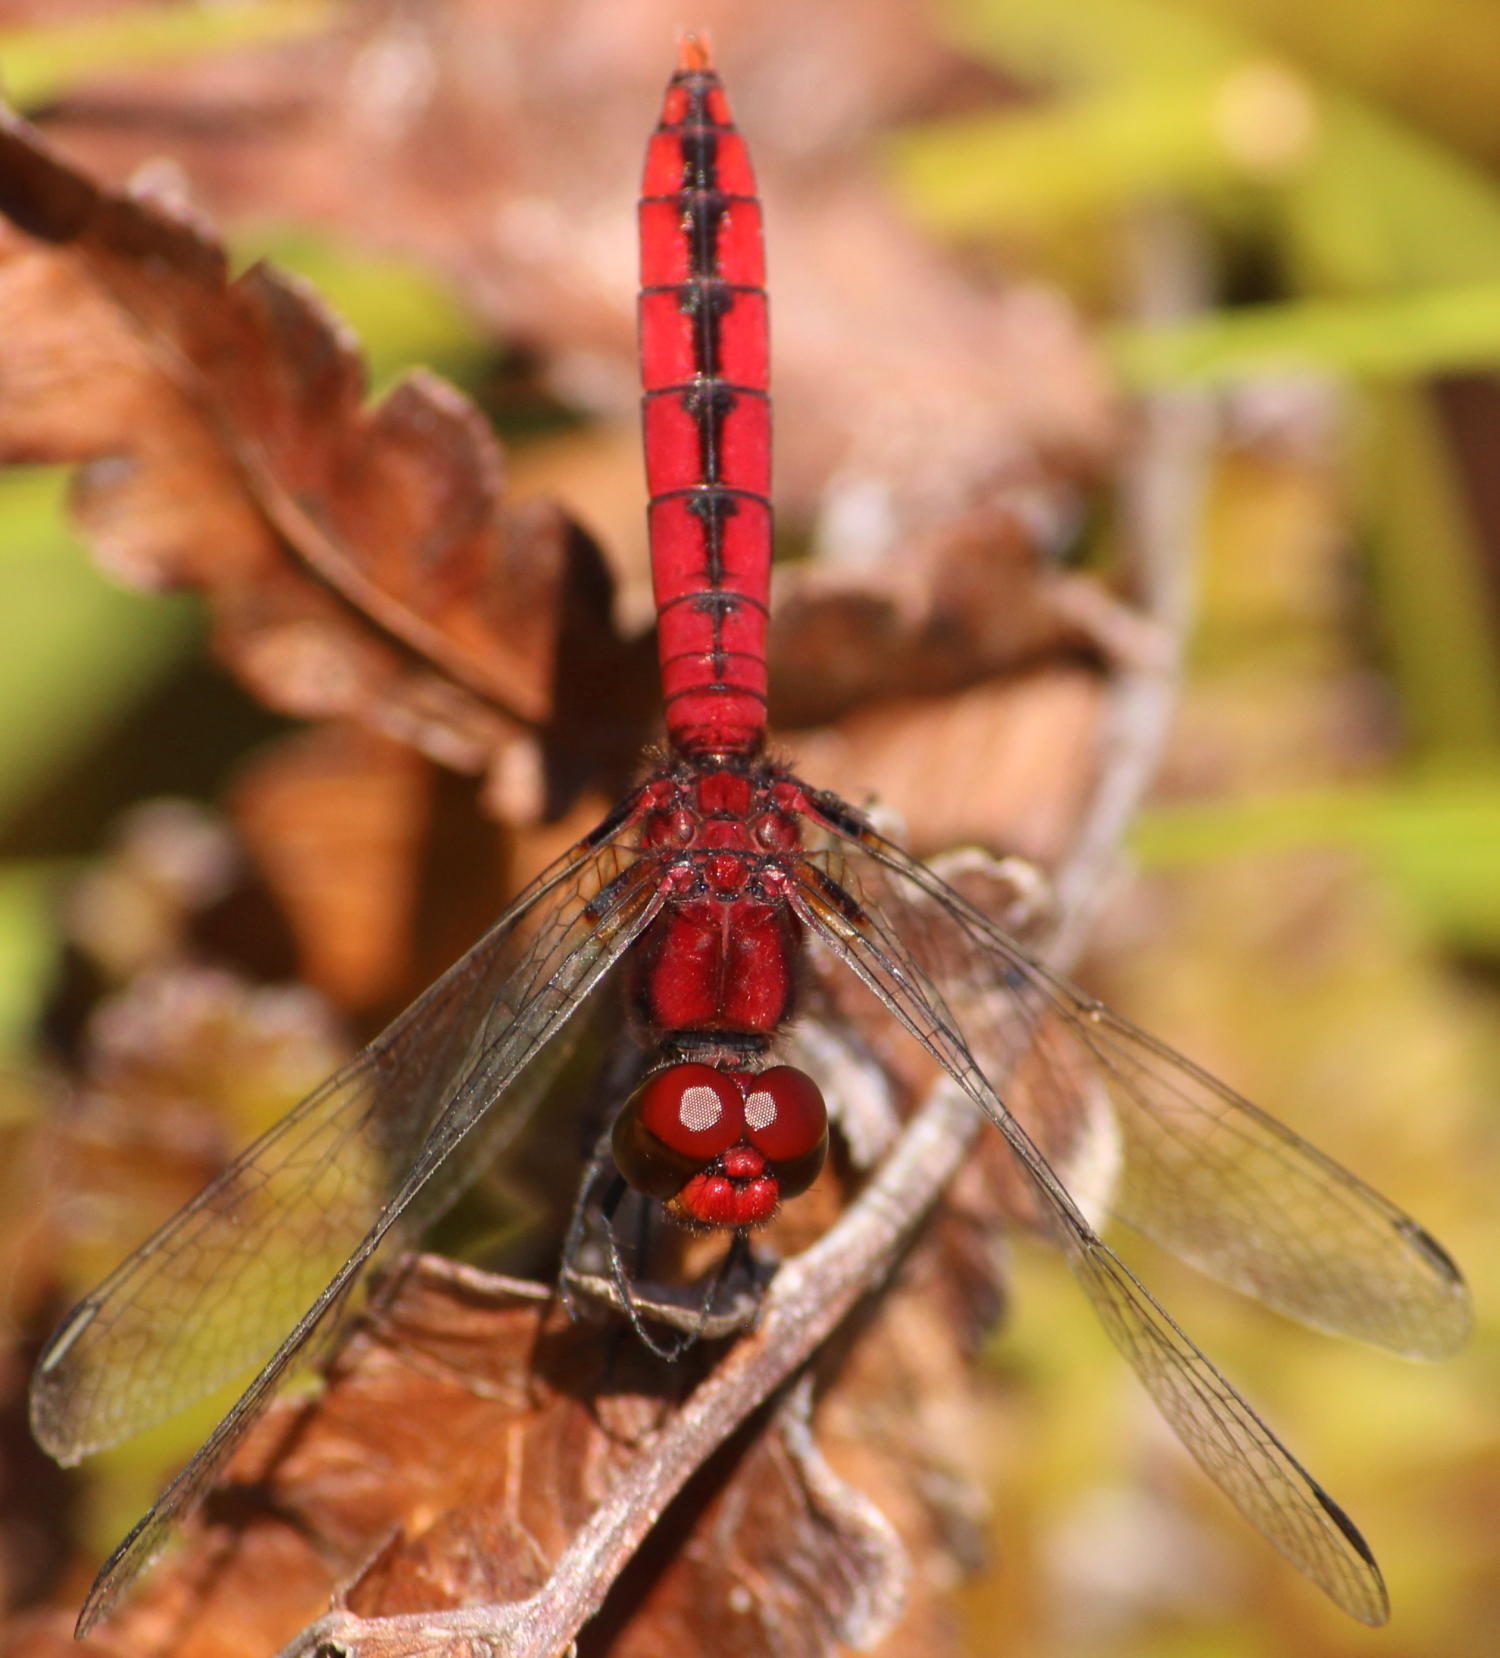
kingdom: Animalia
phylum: Arthropoda
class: Insecta
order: Odonata
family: Libellulidae
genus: Aethriamanta
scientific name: Aethriamanta rezia
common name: Pygmy basker
